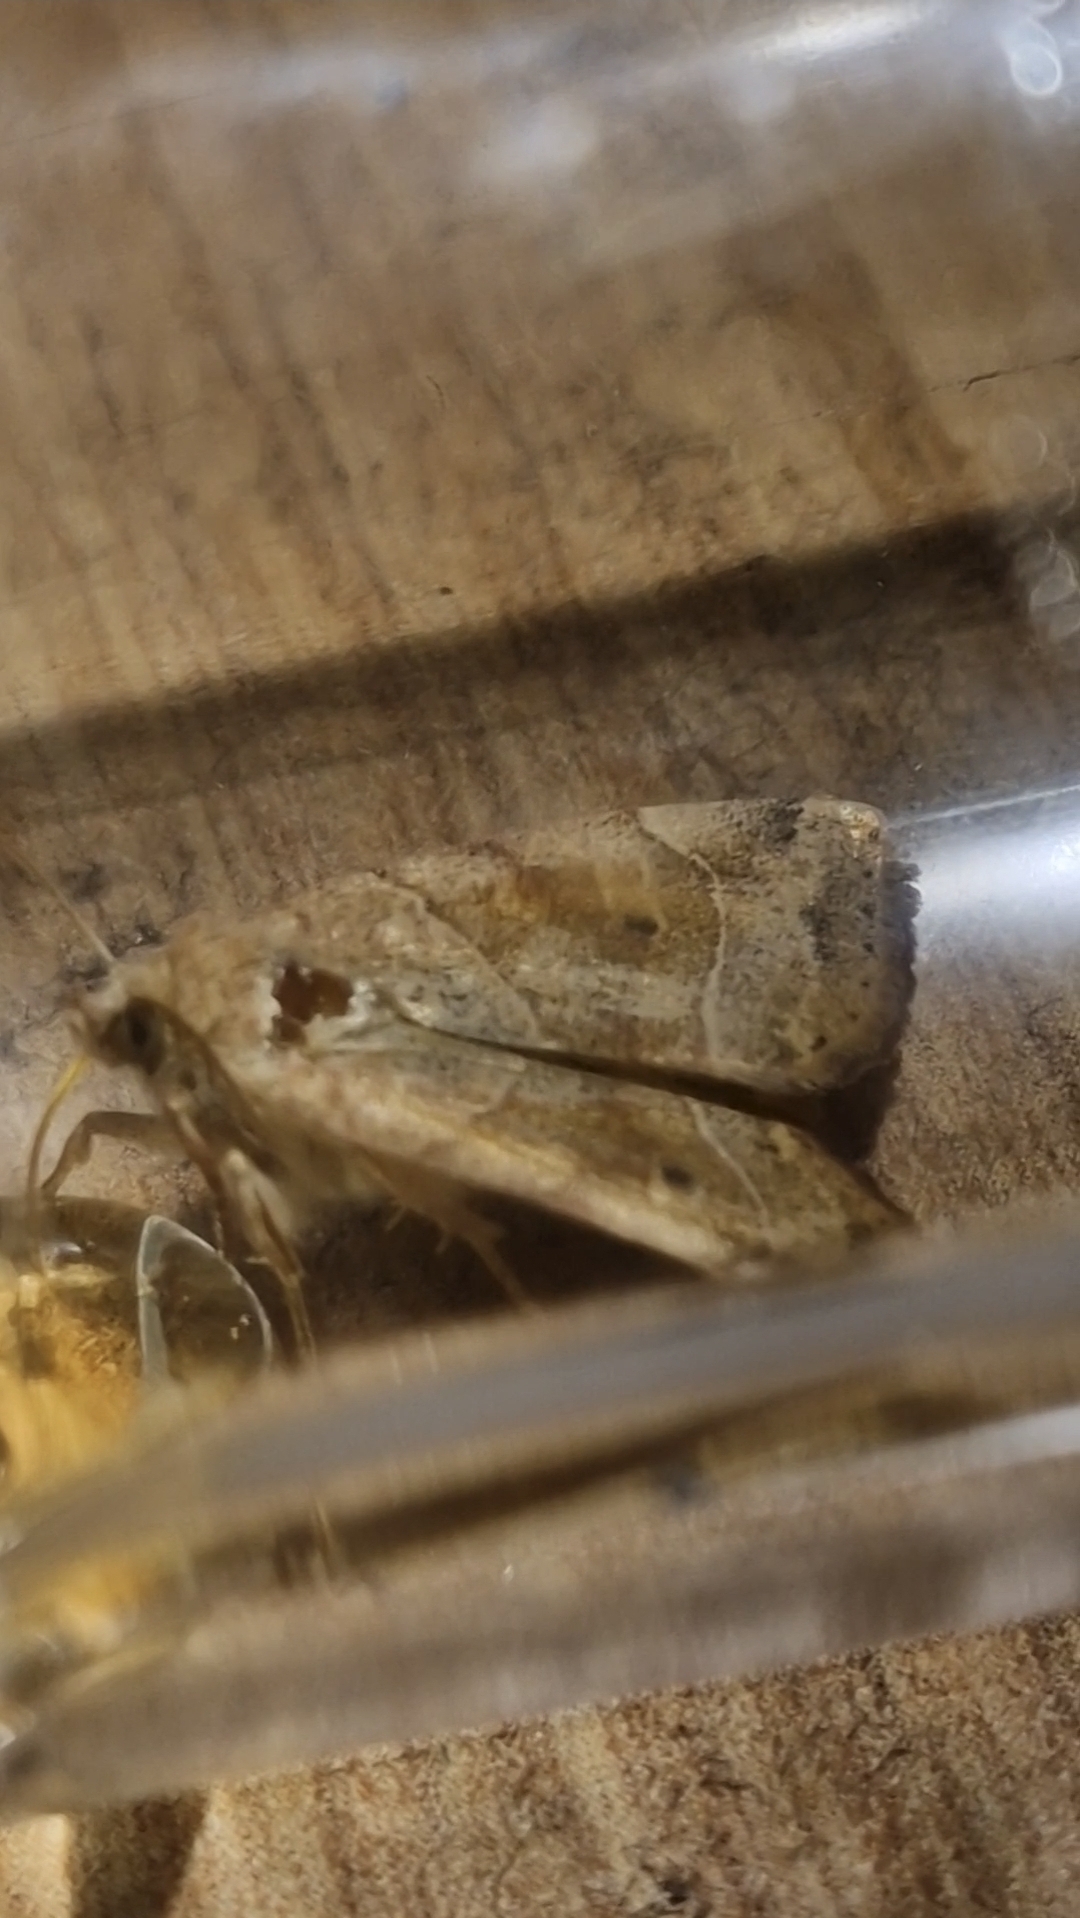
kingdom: Animalia
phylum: Arthropoda
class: Insecta
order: Lepidoptera
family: Noctuidae
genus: Cosmia
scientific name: Cosmia trapezina
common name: Dun-bar
